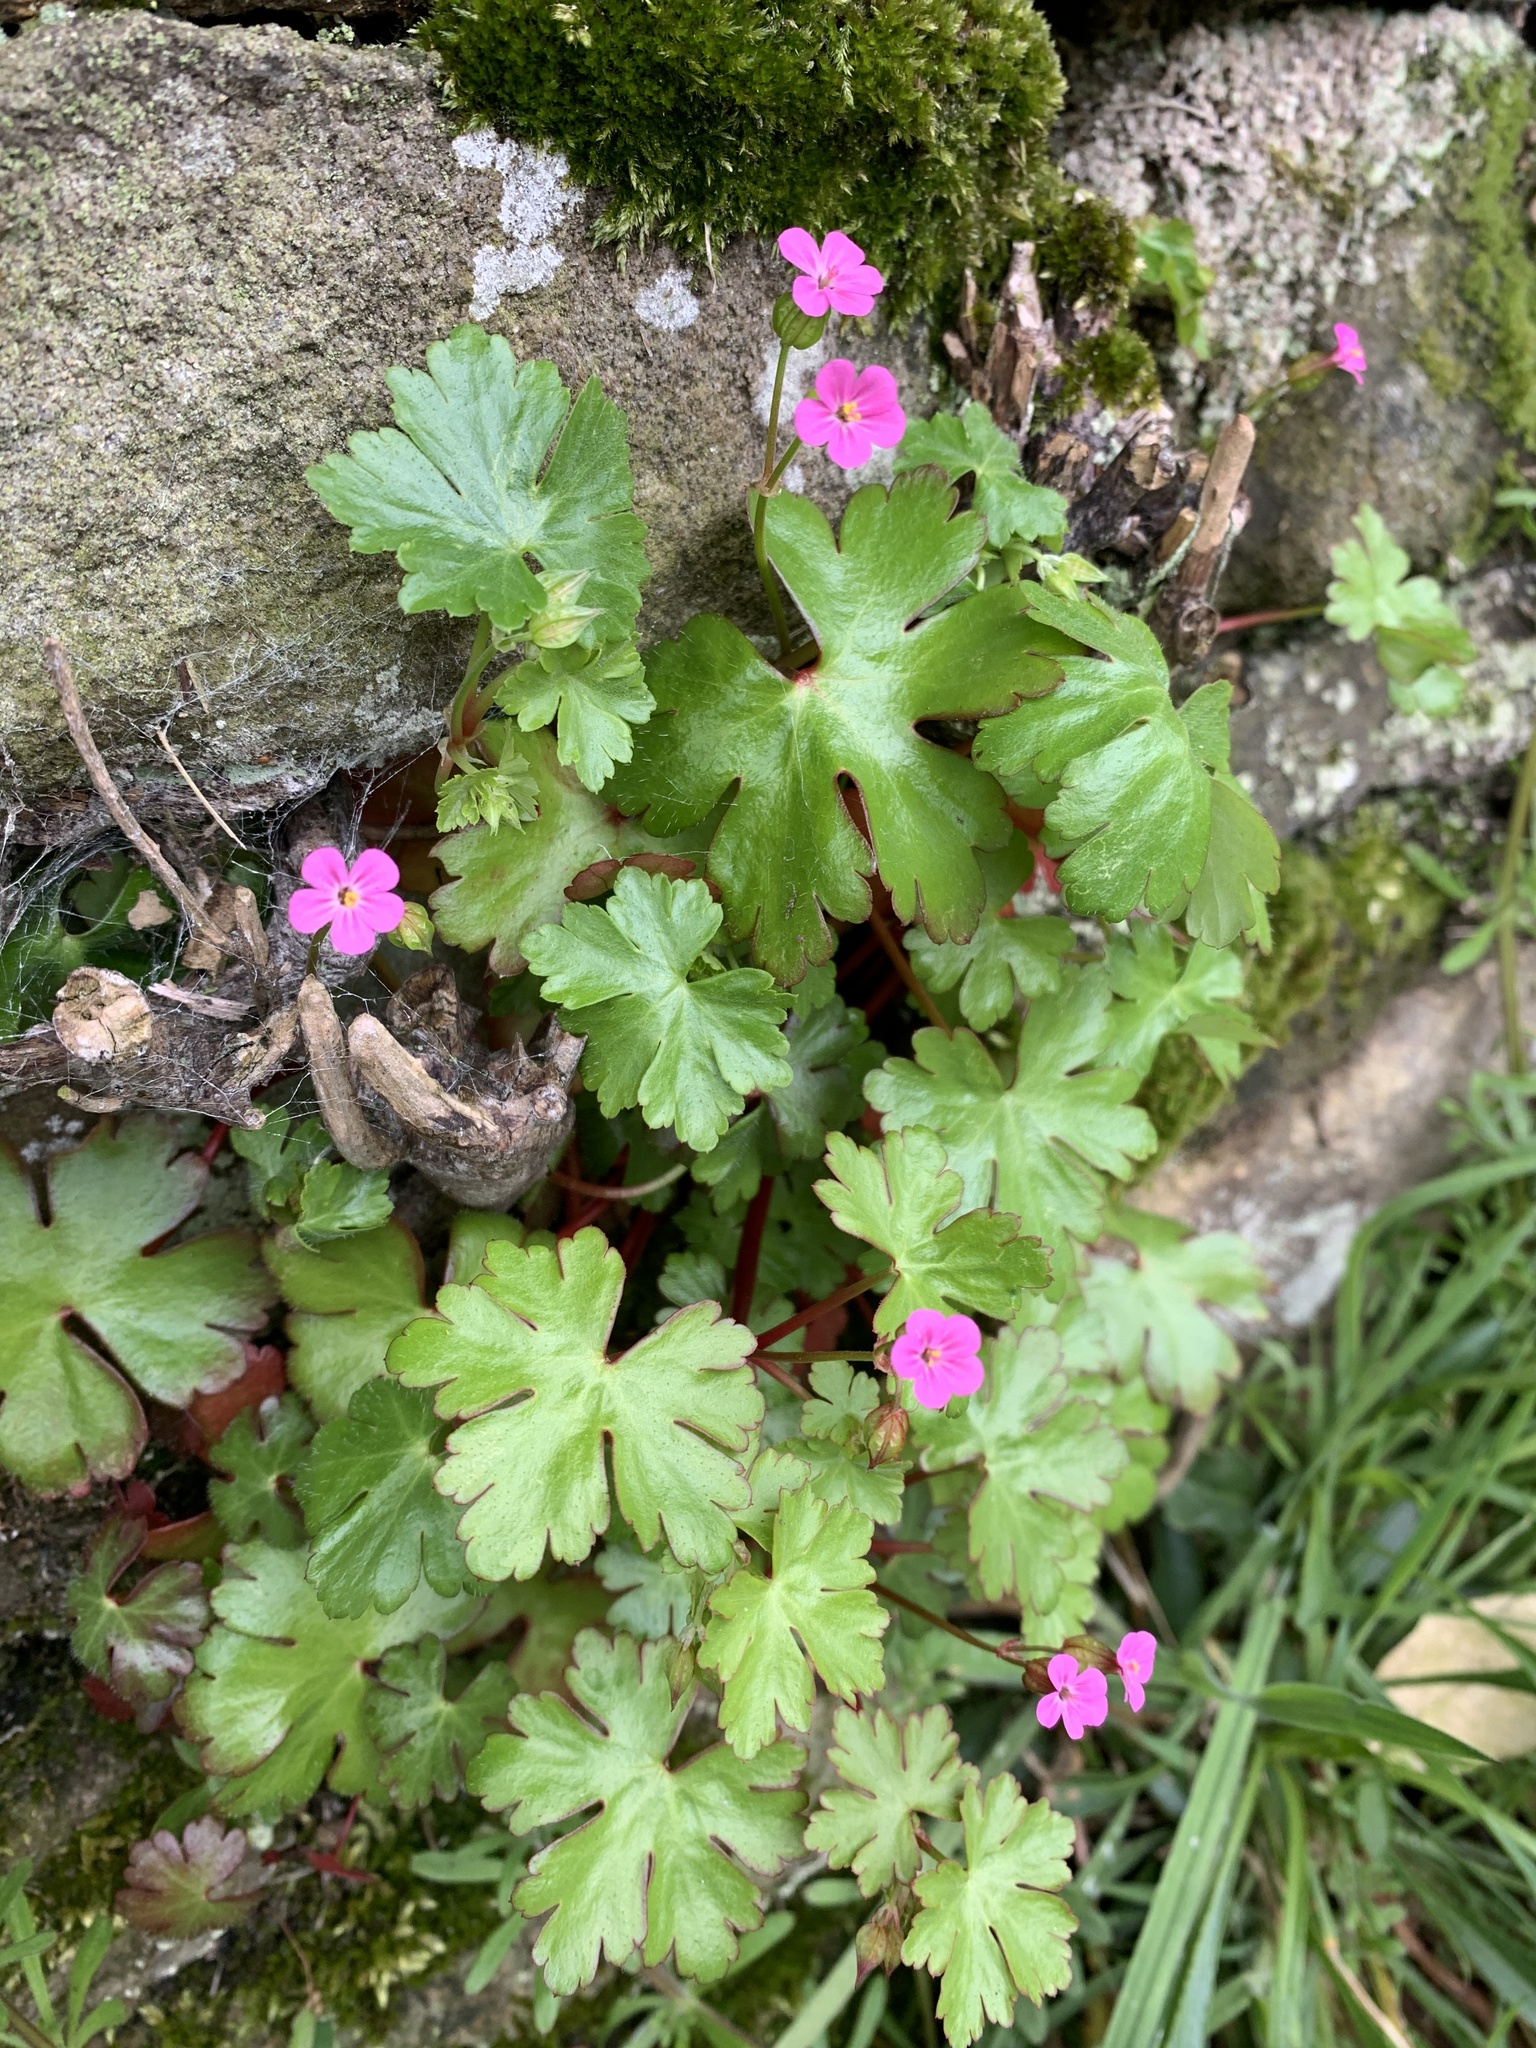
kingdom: Plantae
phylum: Tracheophyta
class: Magnoliopsida
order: Geraniales
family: Geraniaceae
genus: Geranium
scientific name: Geranium lucidum
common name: Shining crane's-bill
